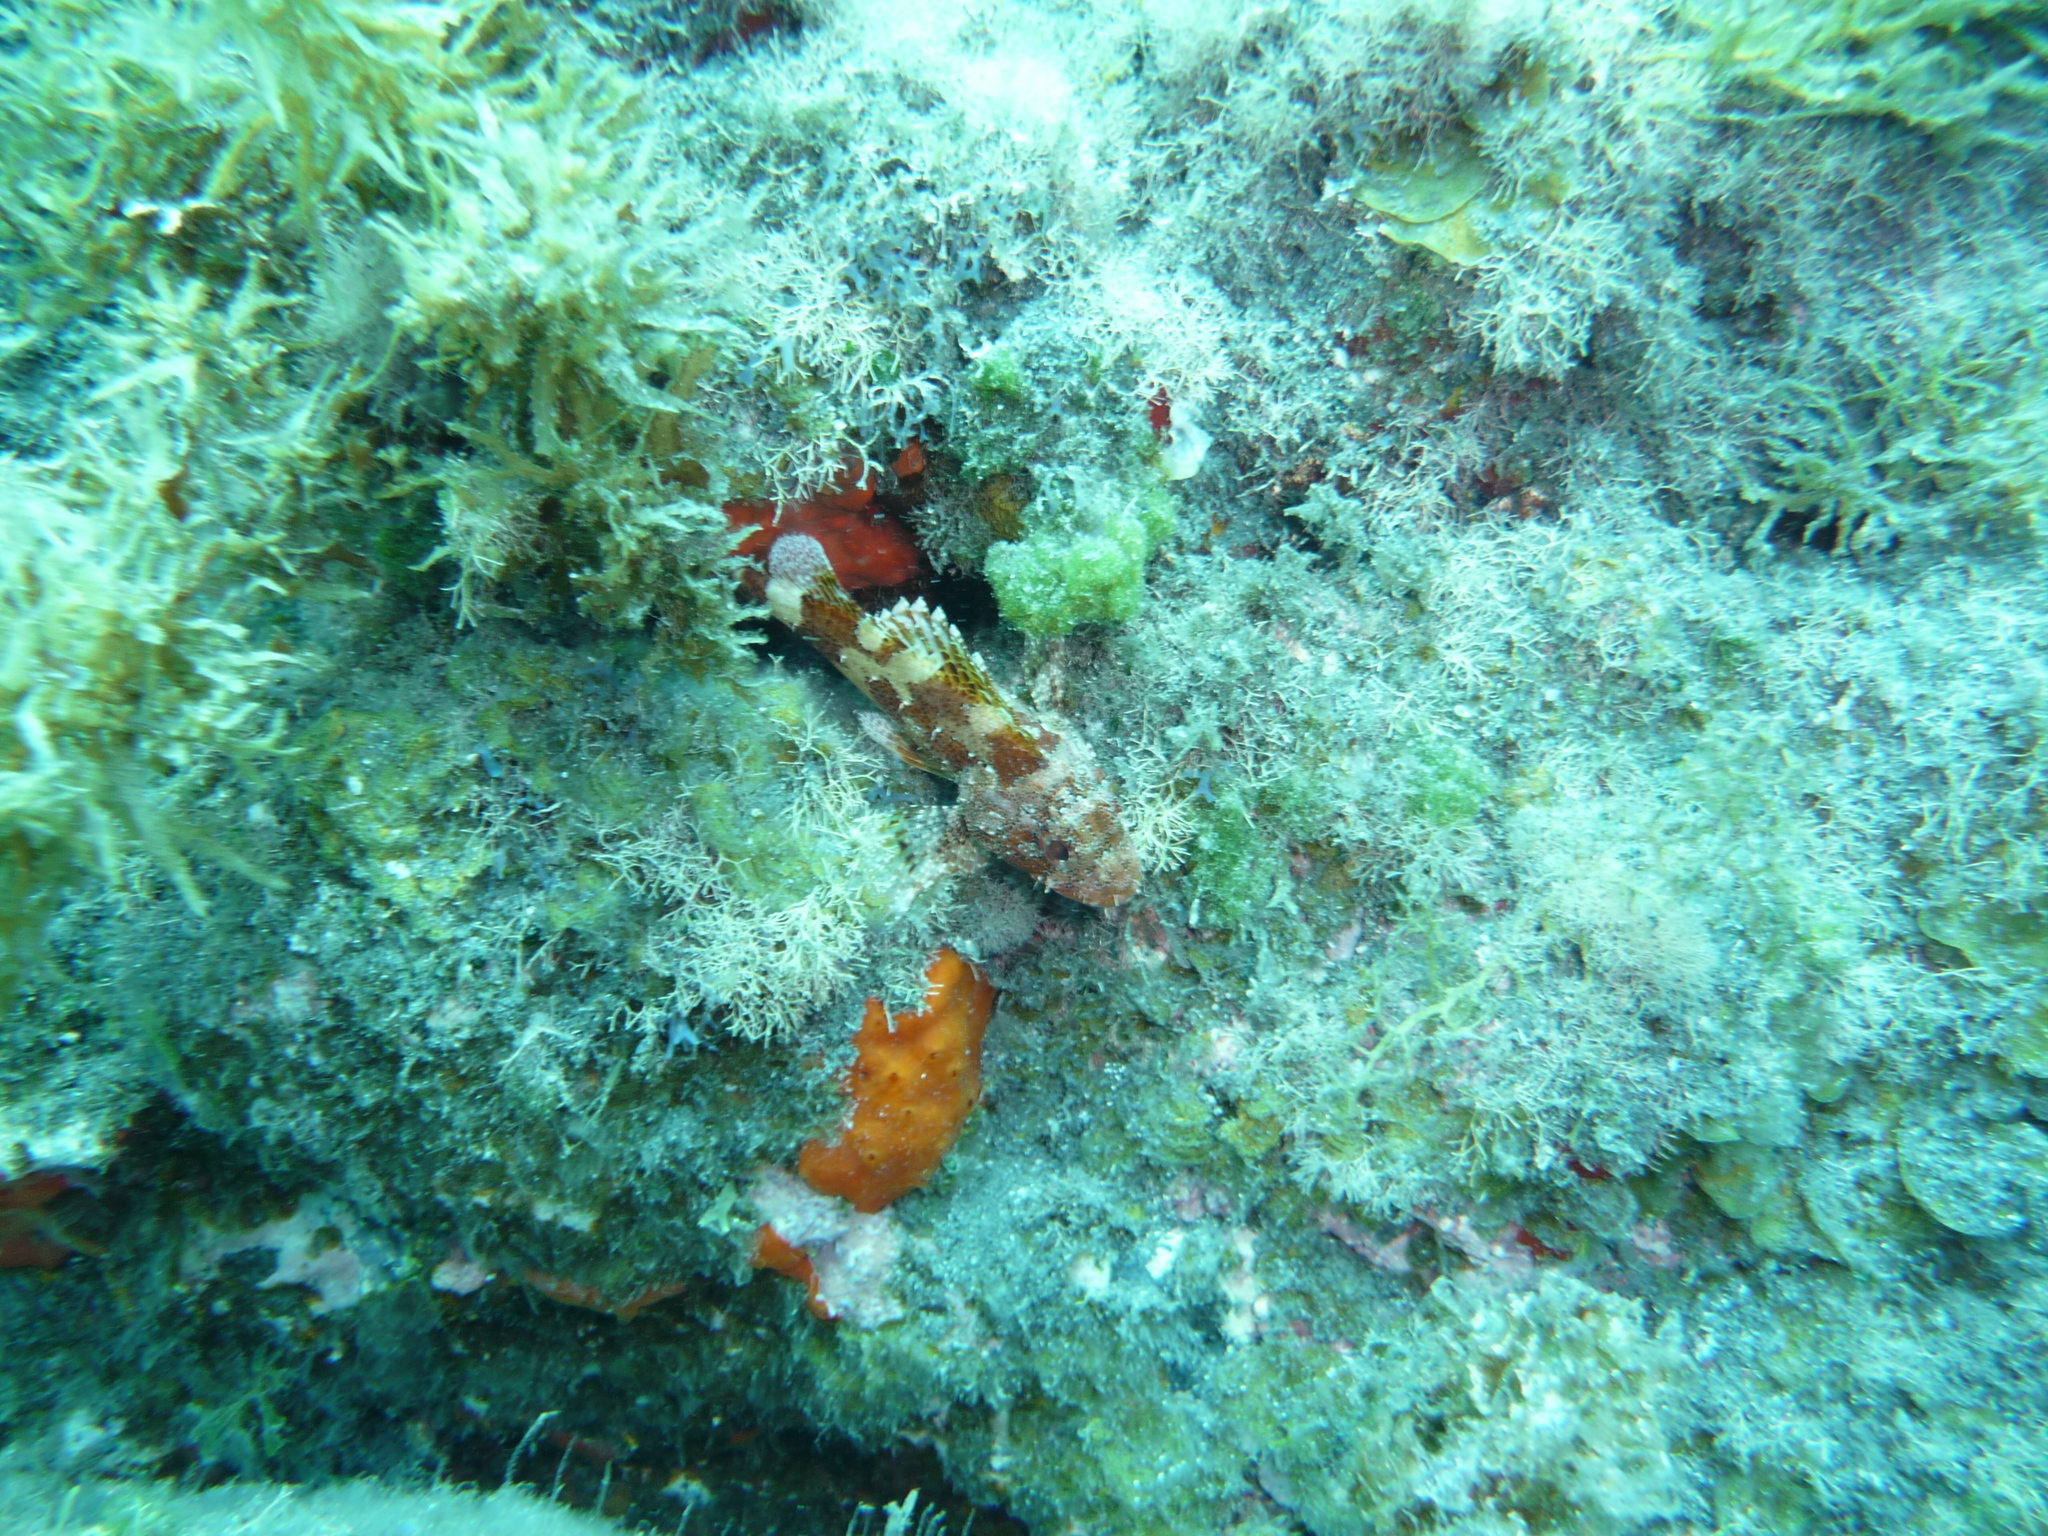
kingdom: Animalia
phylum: Chordata
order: Scorpaeniformes
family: Scorpaenidae
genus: Scorpaena
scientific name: Scorpaena maderensis
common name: Madeira rockfish
